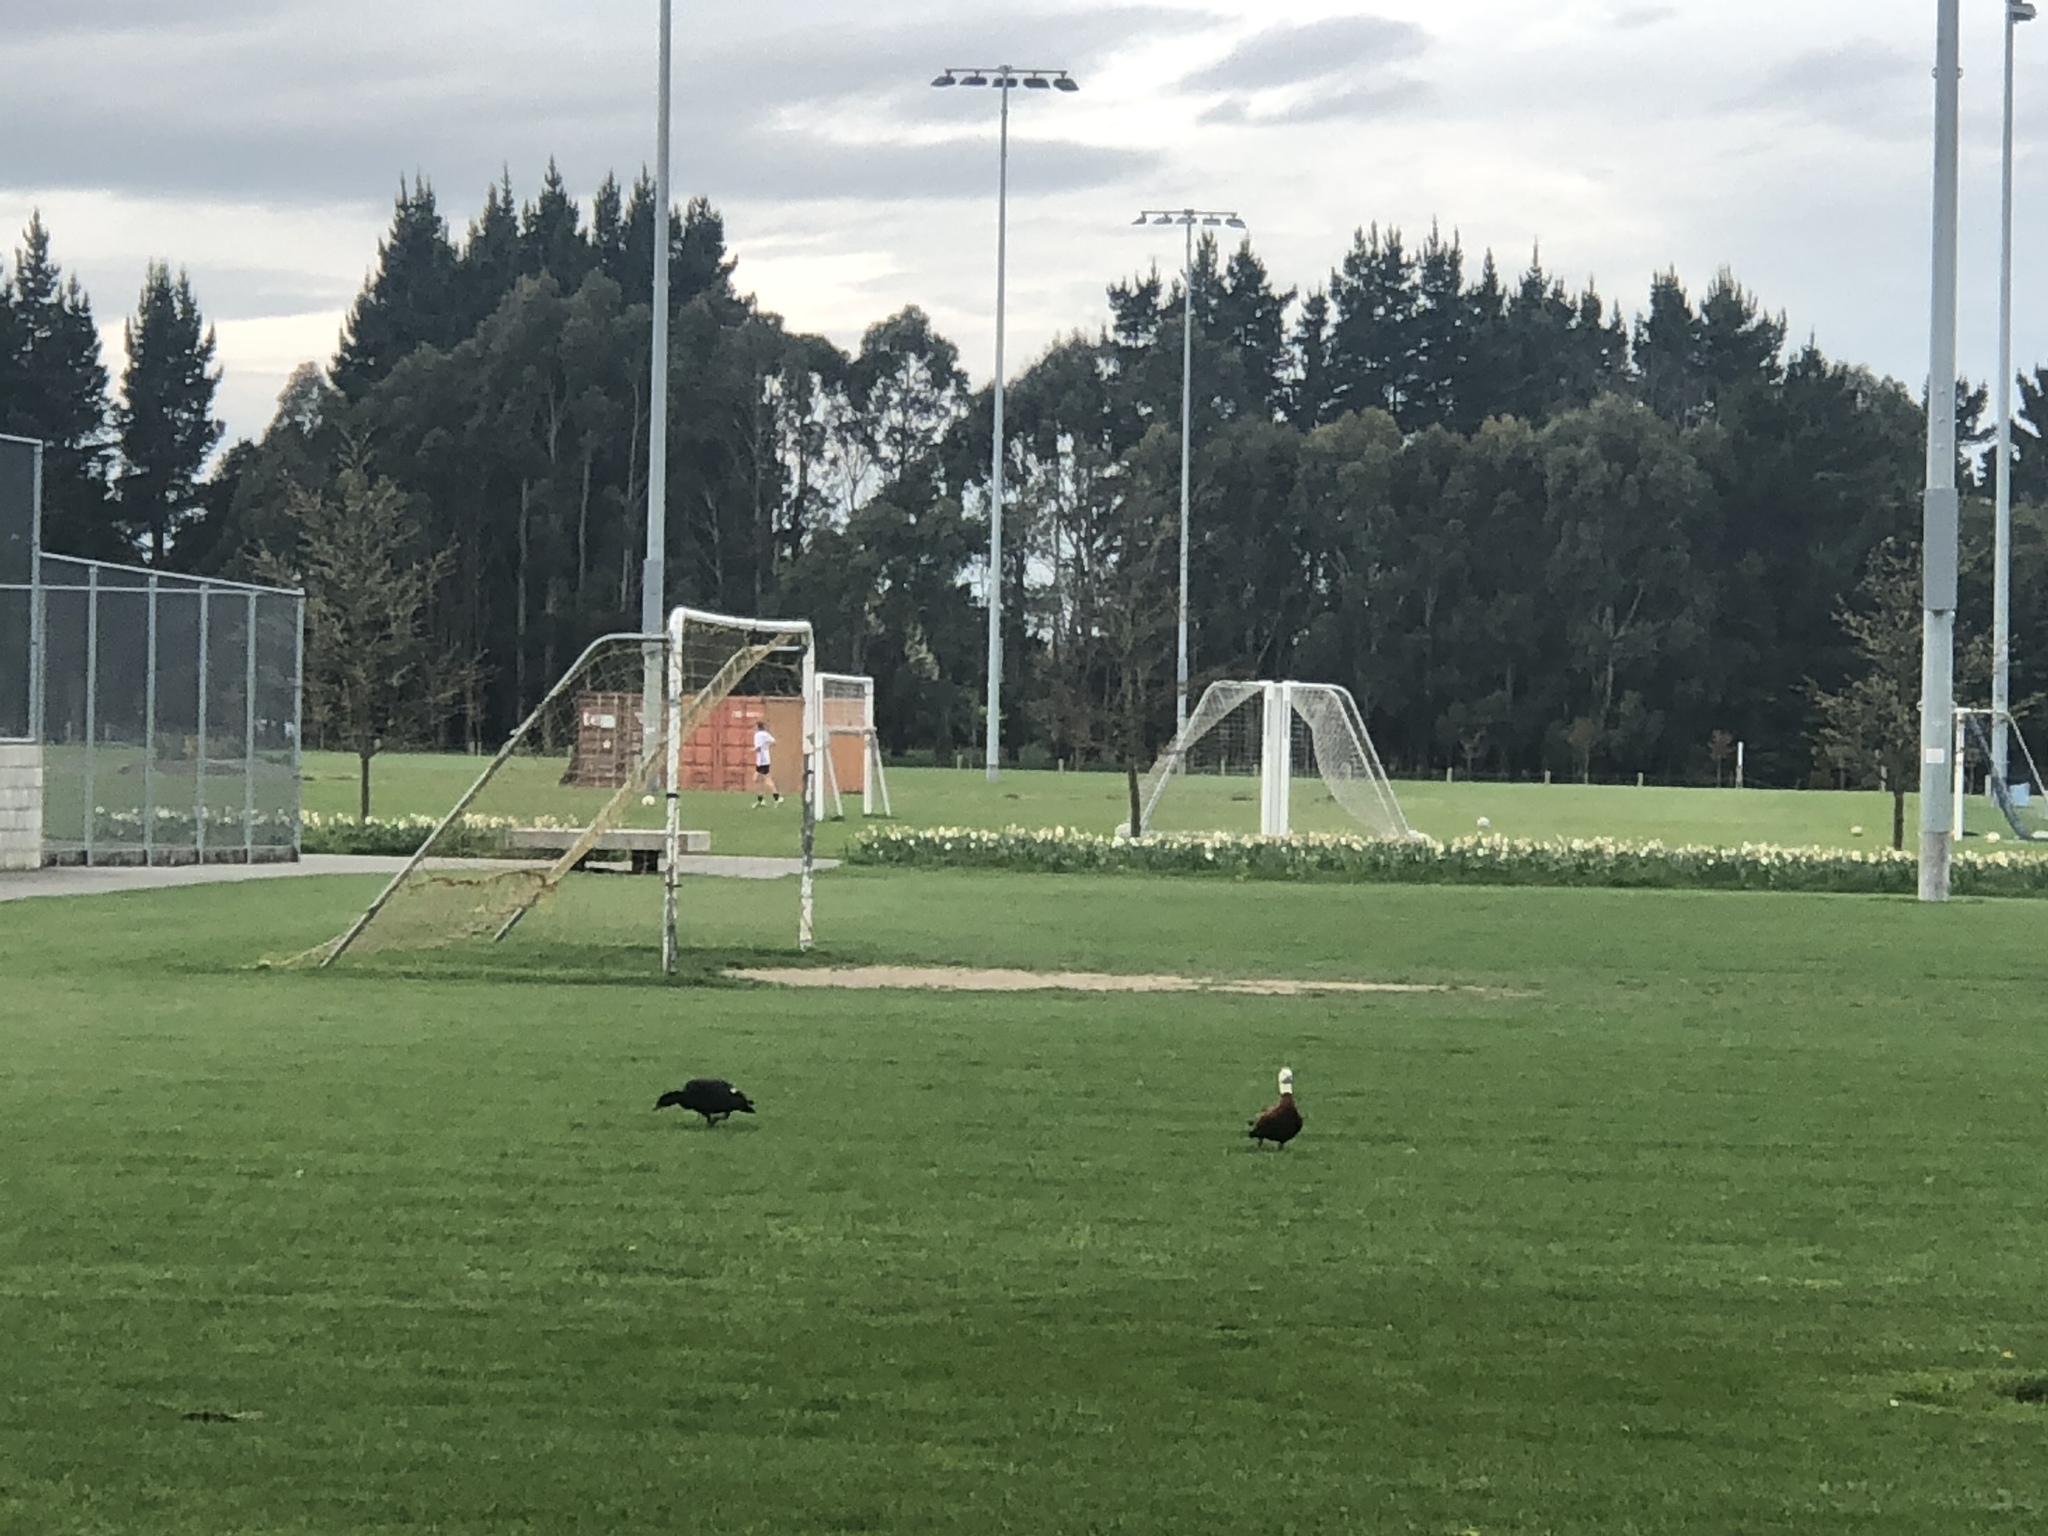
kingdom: Animalia
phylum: Chordata
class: Aves
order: Anseriformes
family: Anatidae
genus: Tadorna
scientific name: Tadorna variegata
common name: Paradise shelduck
